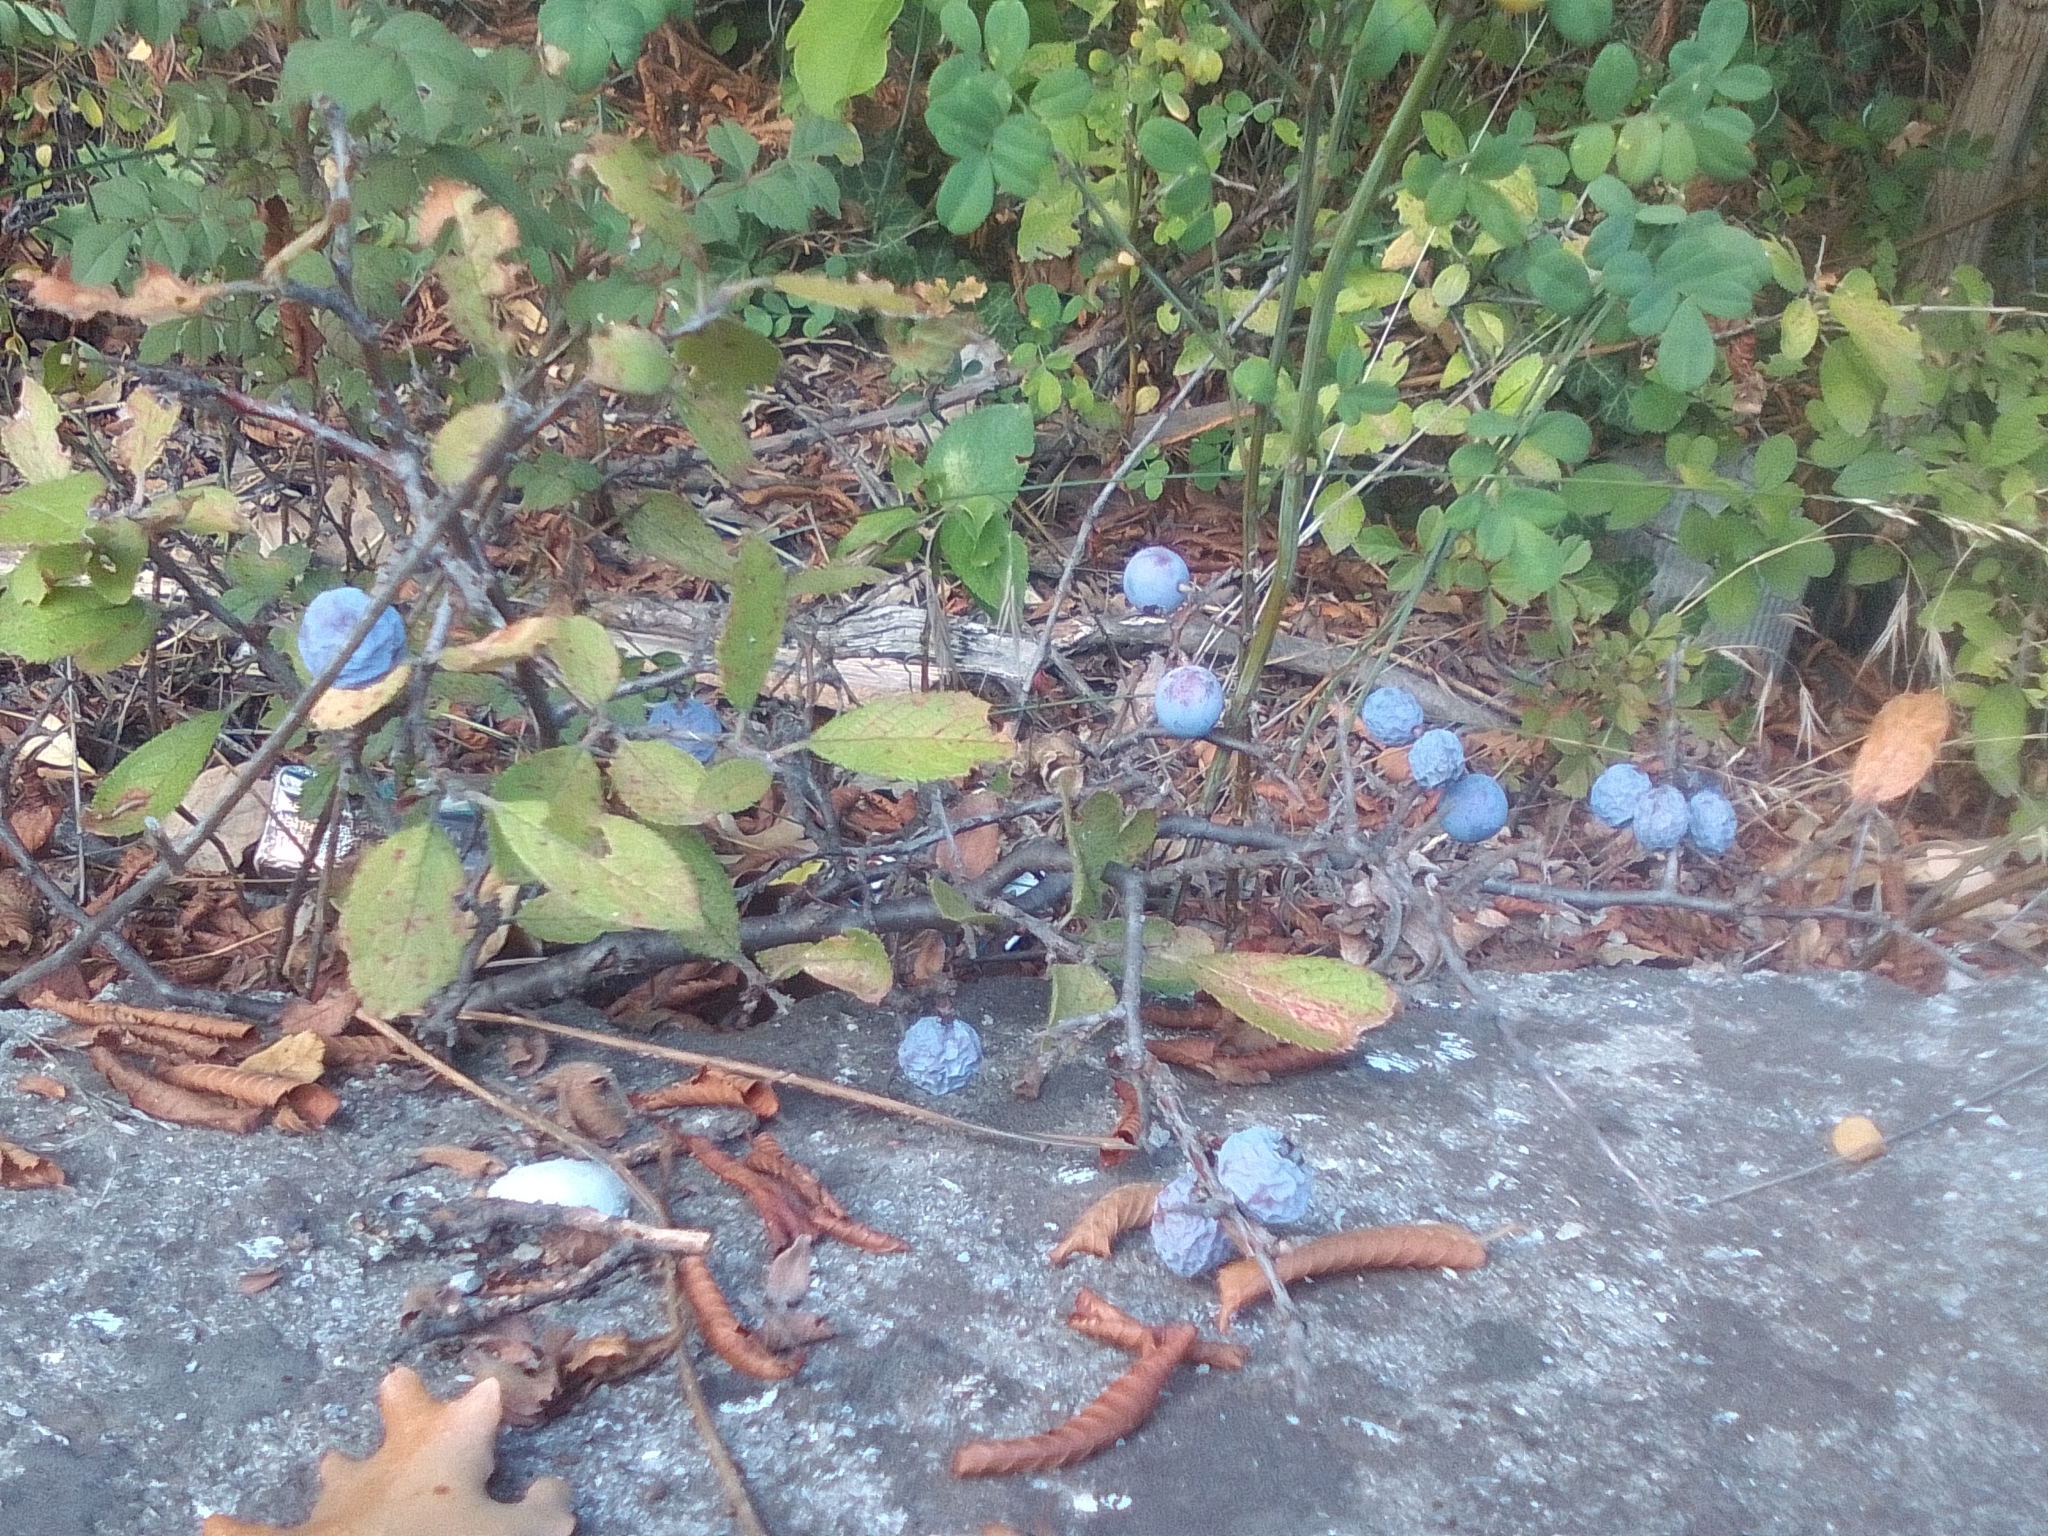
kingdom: Plantae
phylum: Tracheophyta
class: Magnoliopsida
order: Rosales
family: Rosaceae
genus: Prunus
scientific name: Prunus spinosa
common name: Blackthorn
